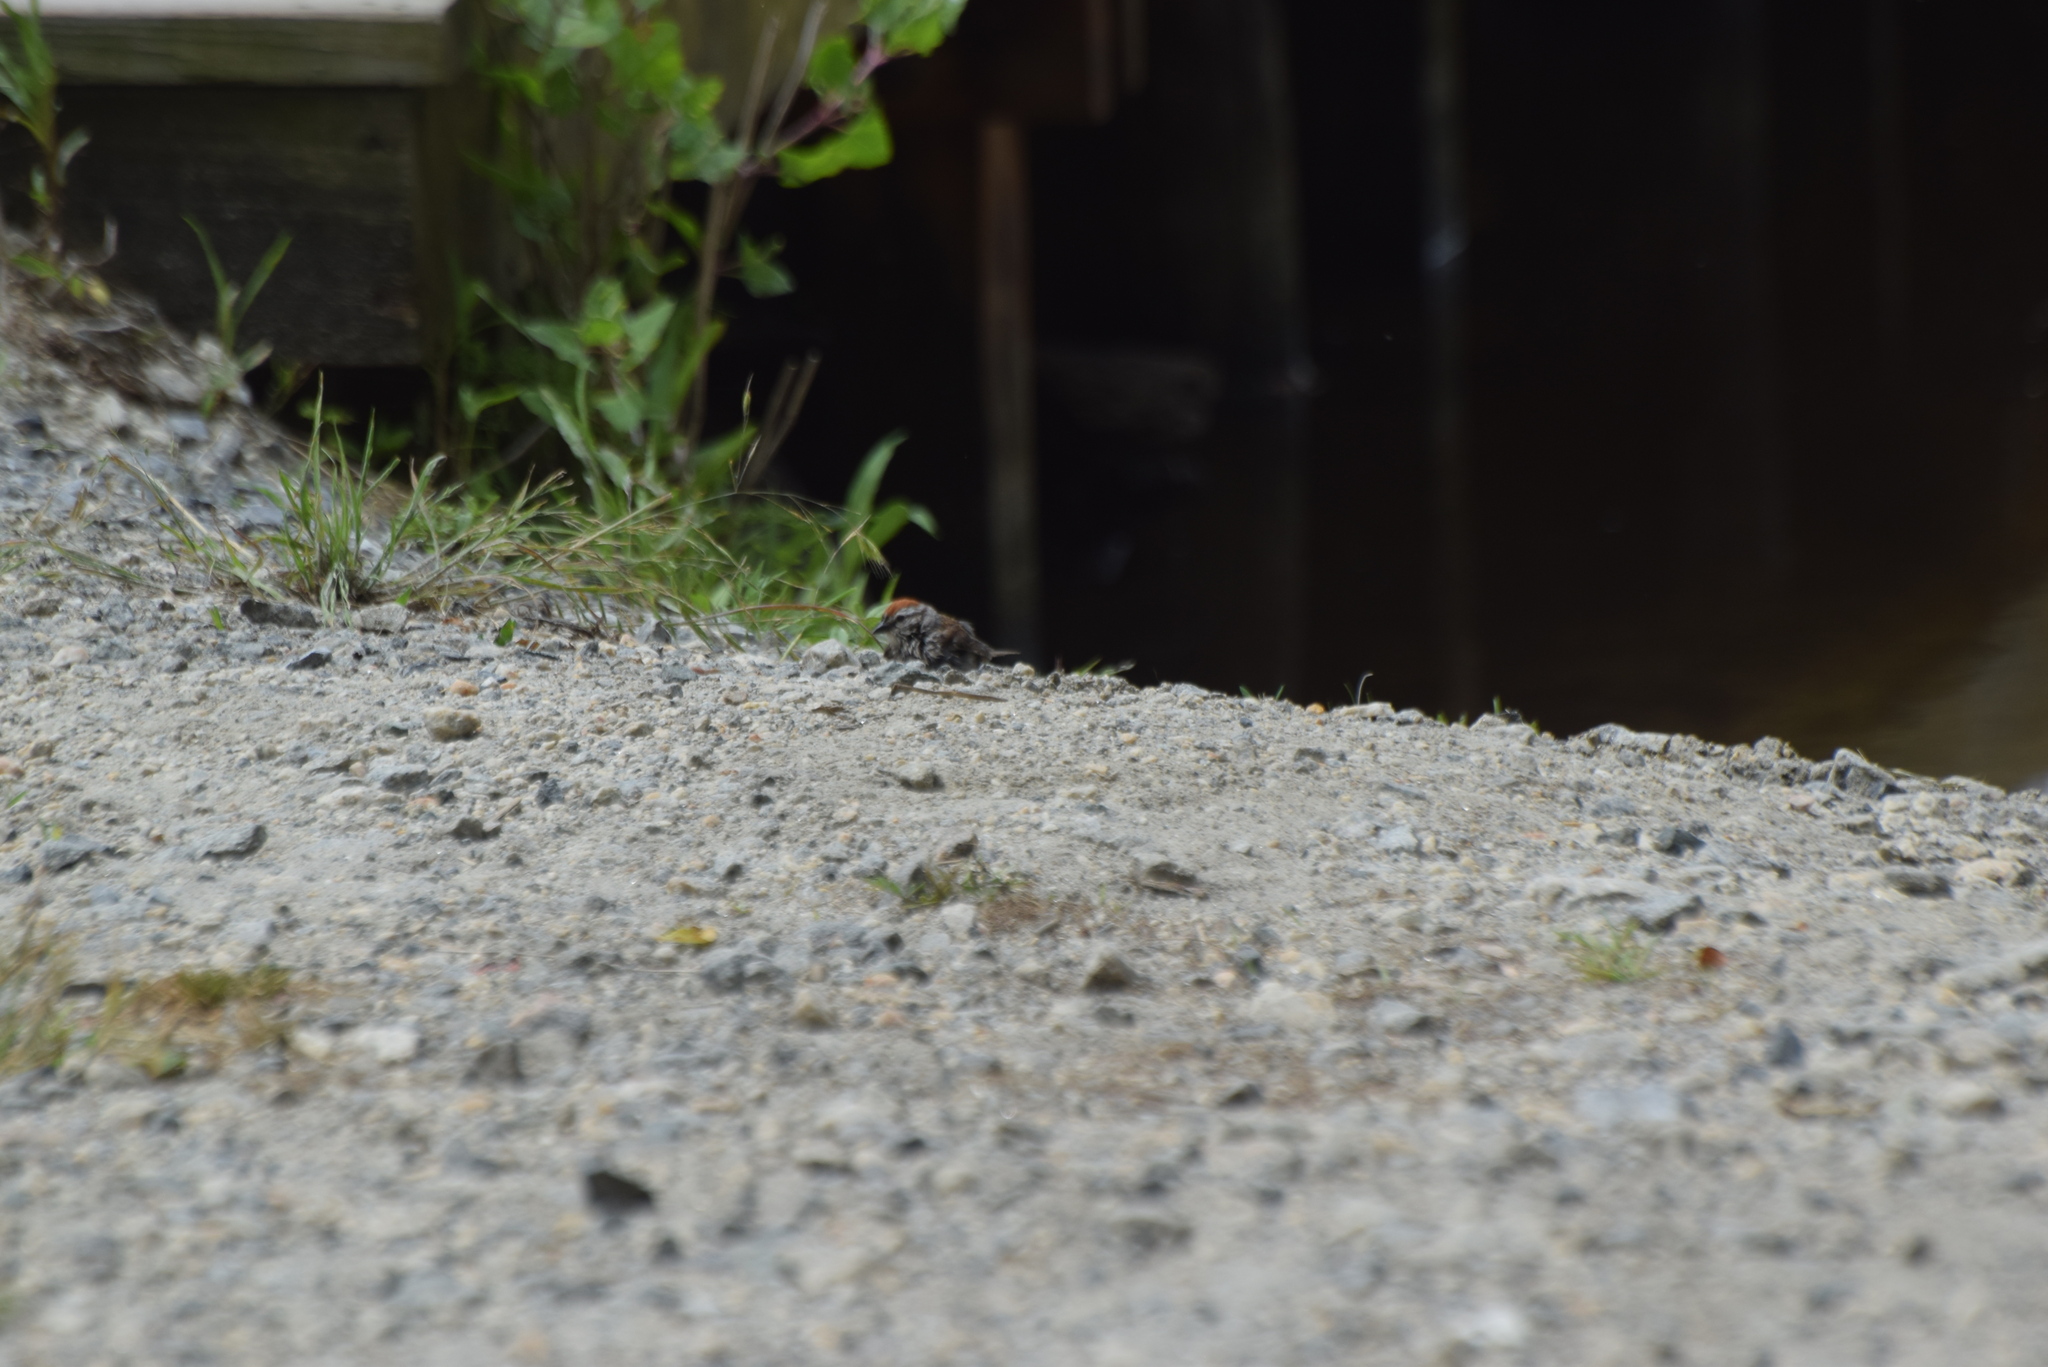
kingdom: Animalia
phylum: Chordata
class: Aves
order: Passeriformes
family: Passerellidae
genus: Spizella
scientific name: Spizella passerina
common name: Chipping sparrow
